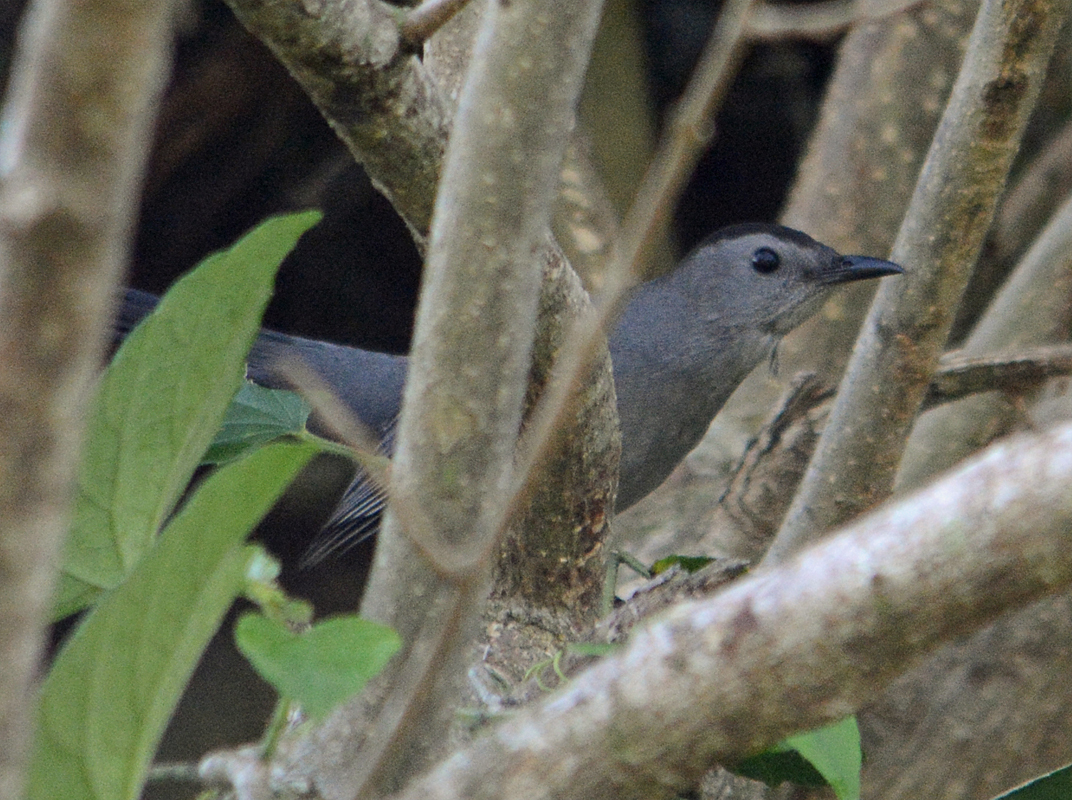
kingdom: Animalia
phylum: Chordata
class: Aves
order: Passeriformes
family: Mimidae
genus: Dumetella
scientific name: Dumetella carolinensis
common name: Gray catbird
